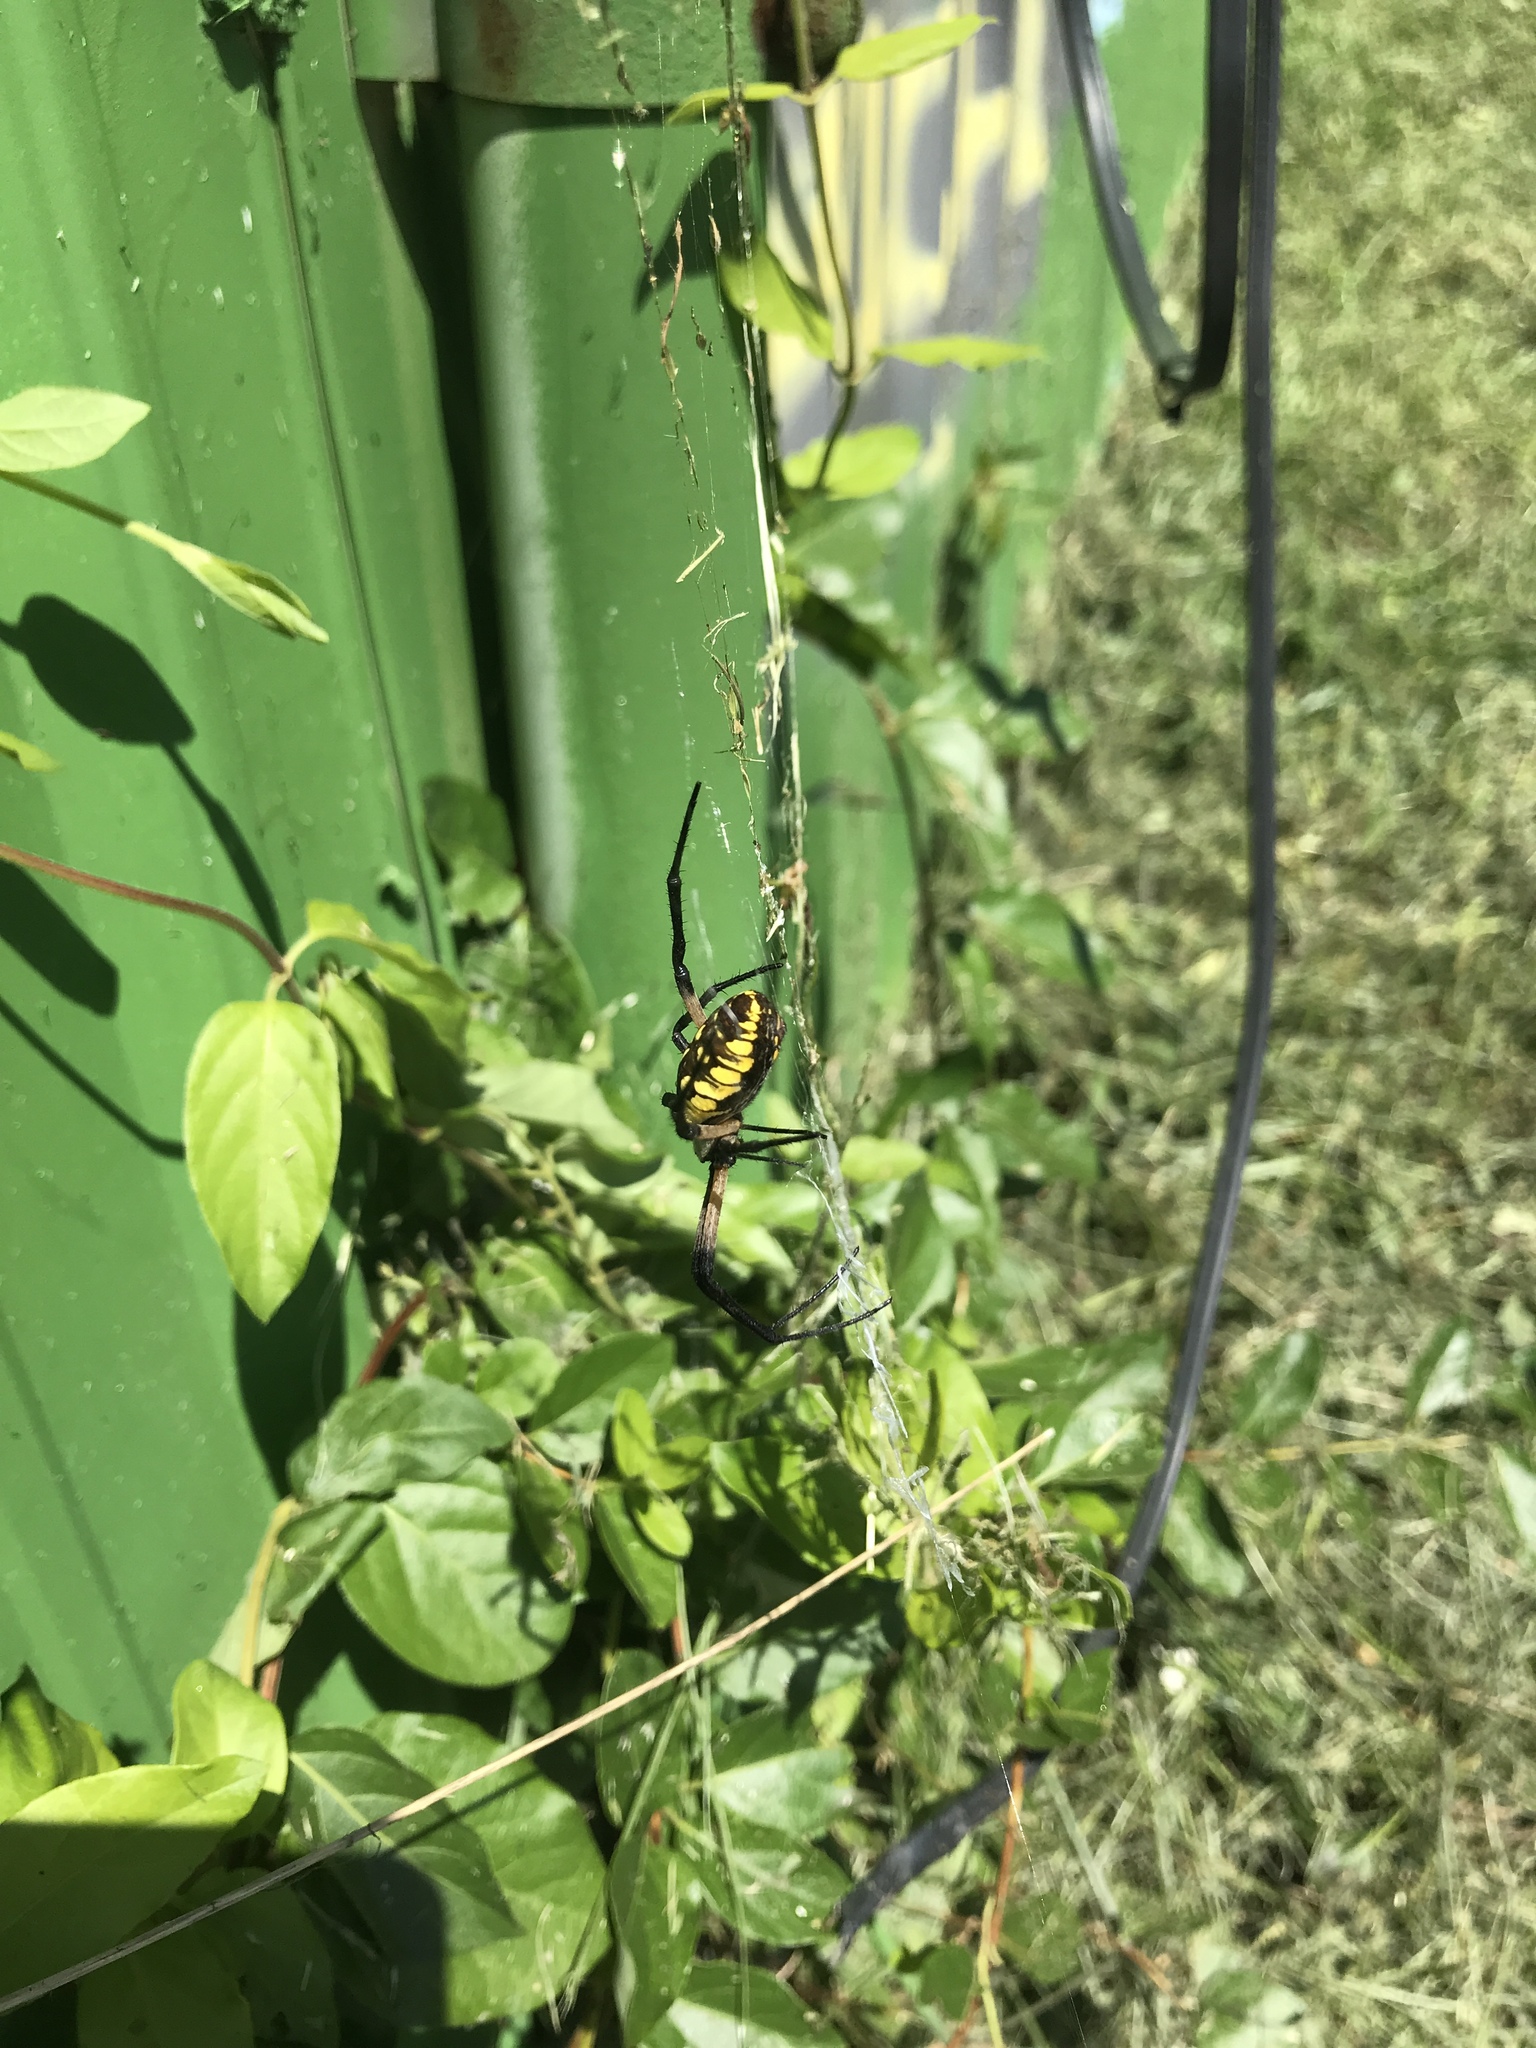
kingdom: Animalia
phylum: Arthropoda
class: Arachnida
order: Araneae
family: Araneidae
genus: Argiope
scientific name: Argiope aurantia
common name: Orb weavers
